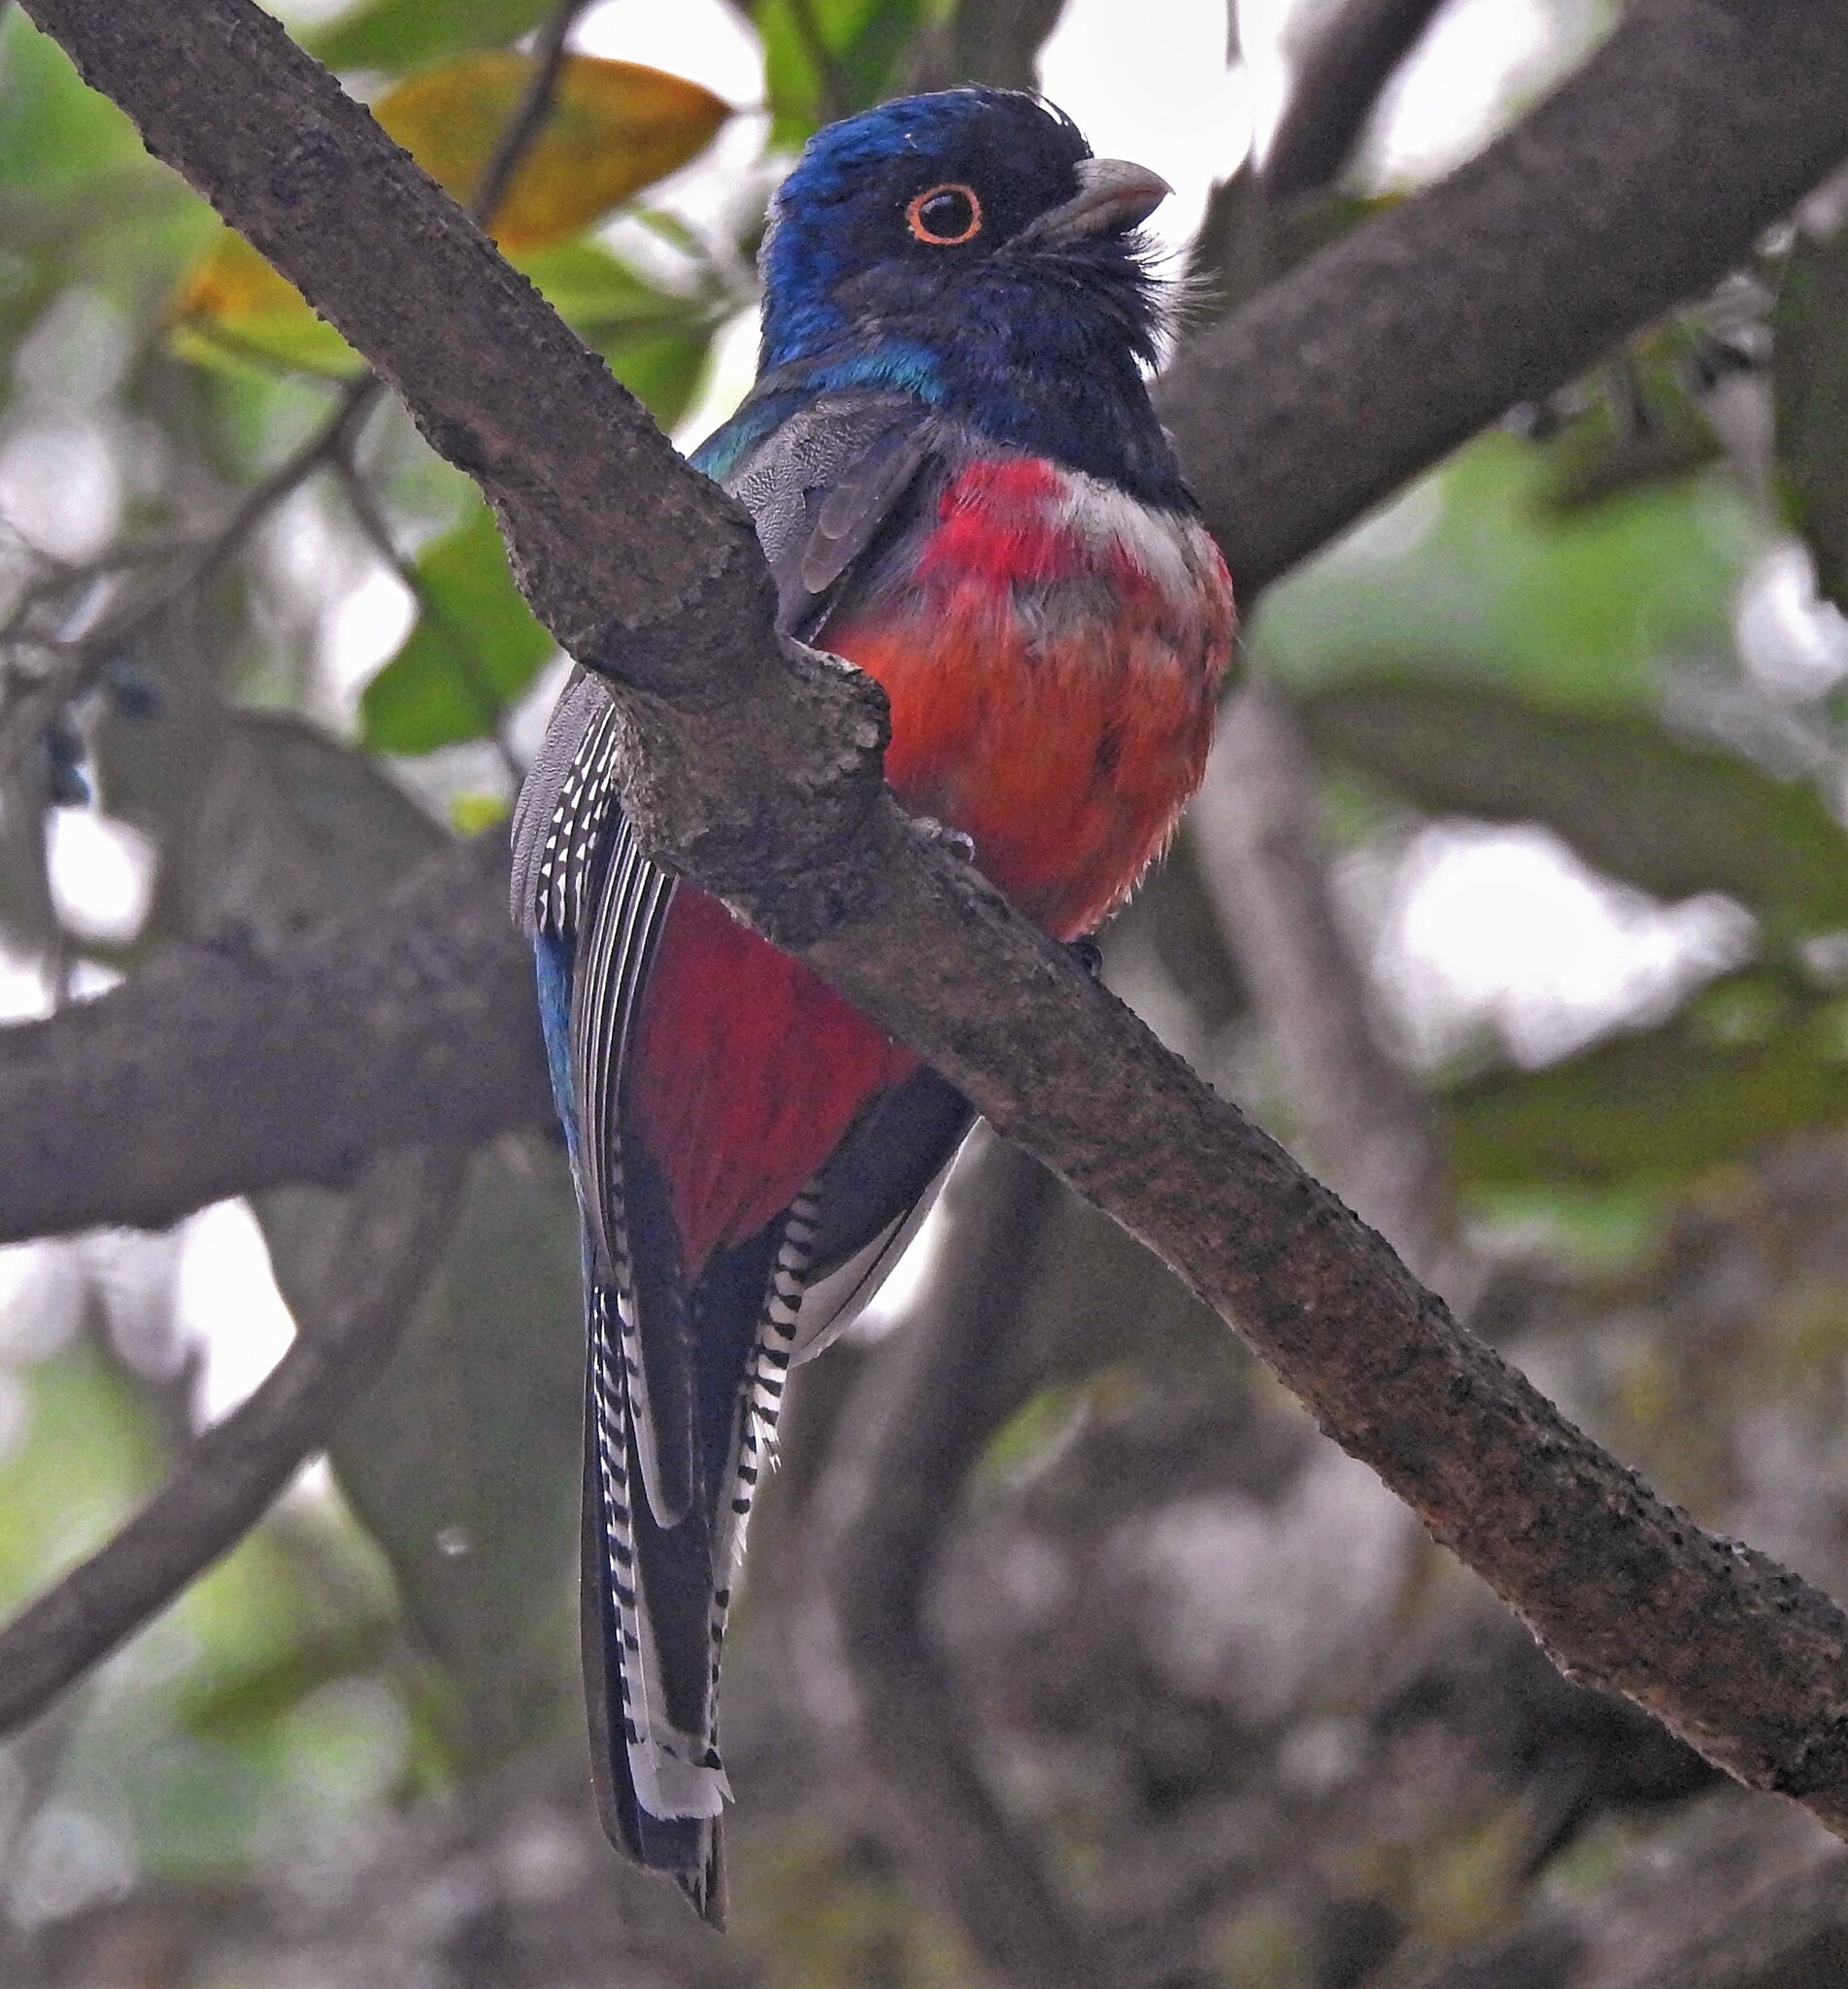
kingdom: Animalia
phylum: Chordata
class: Aves
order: Trogoniformes
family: Trogonidae
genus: Trogon
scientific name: Trogon curucui
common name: Blue-crowned trogon
